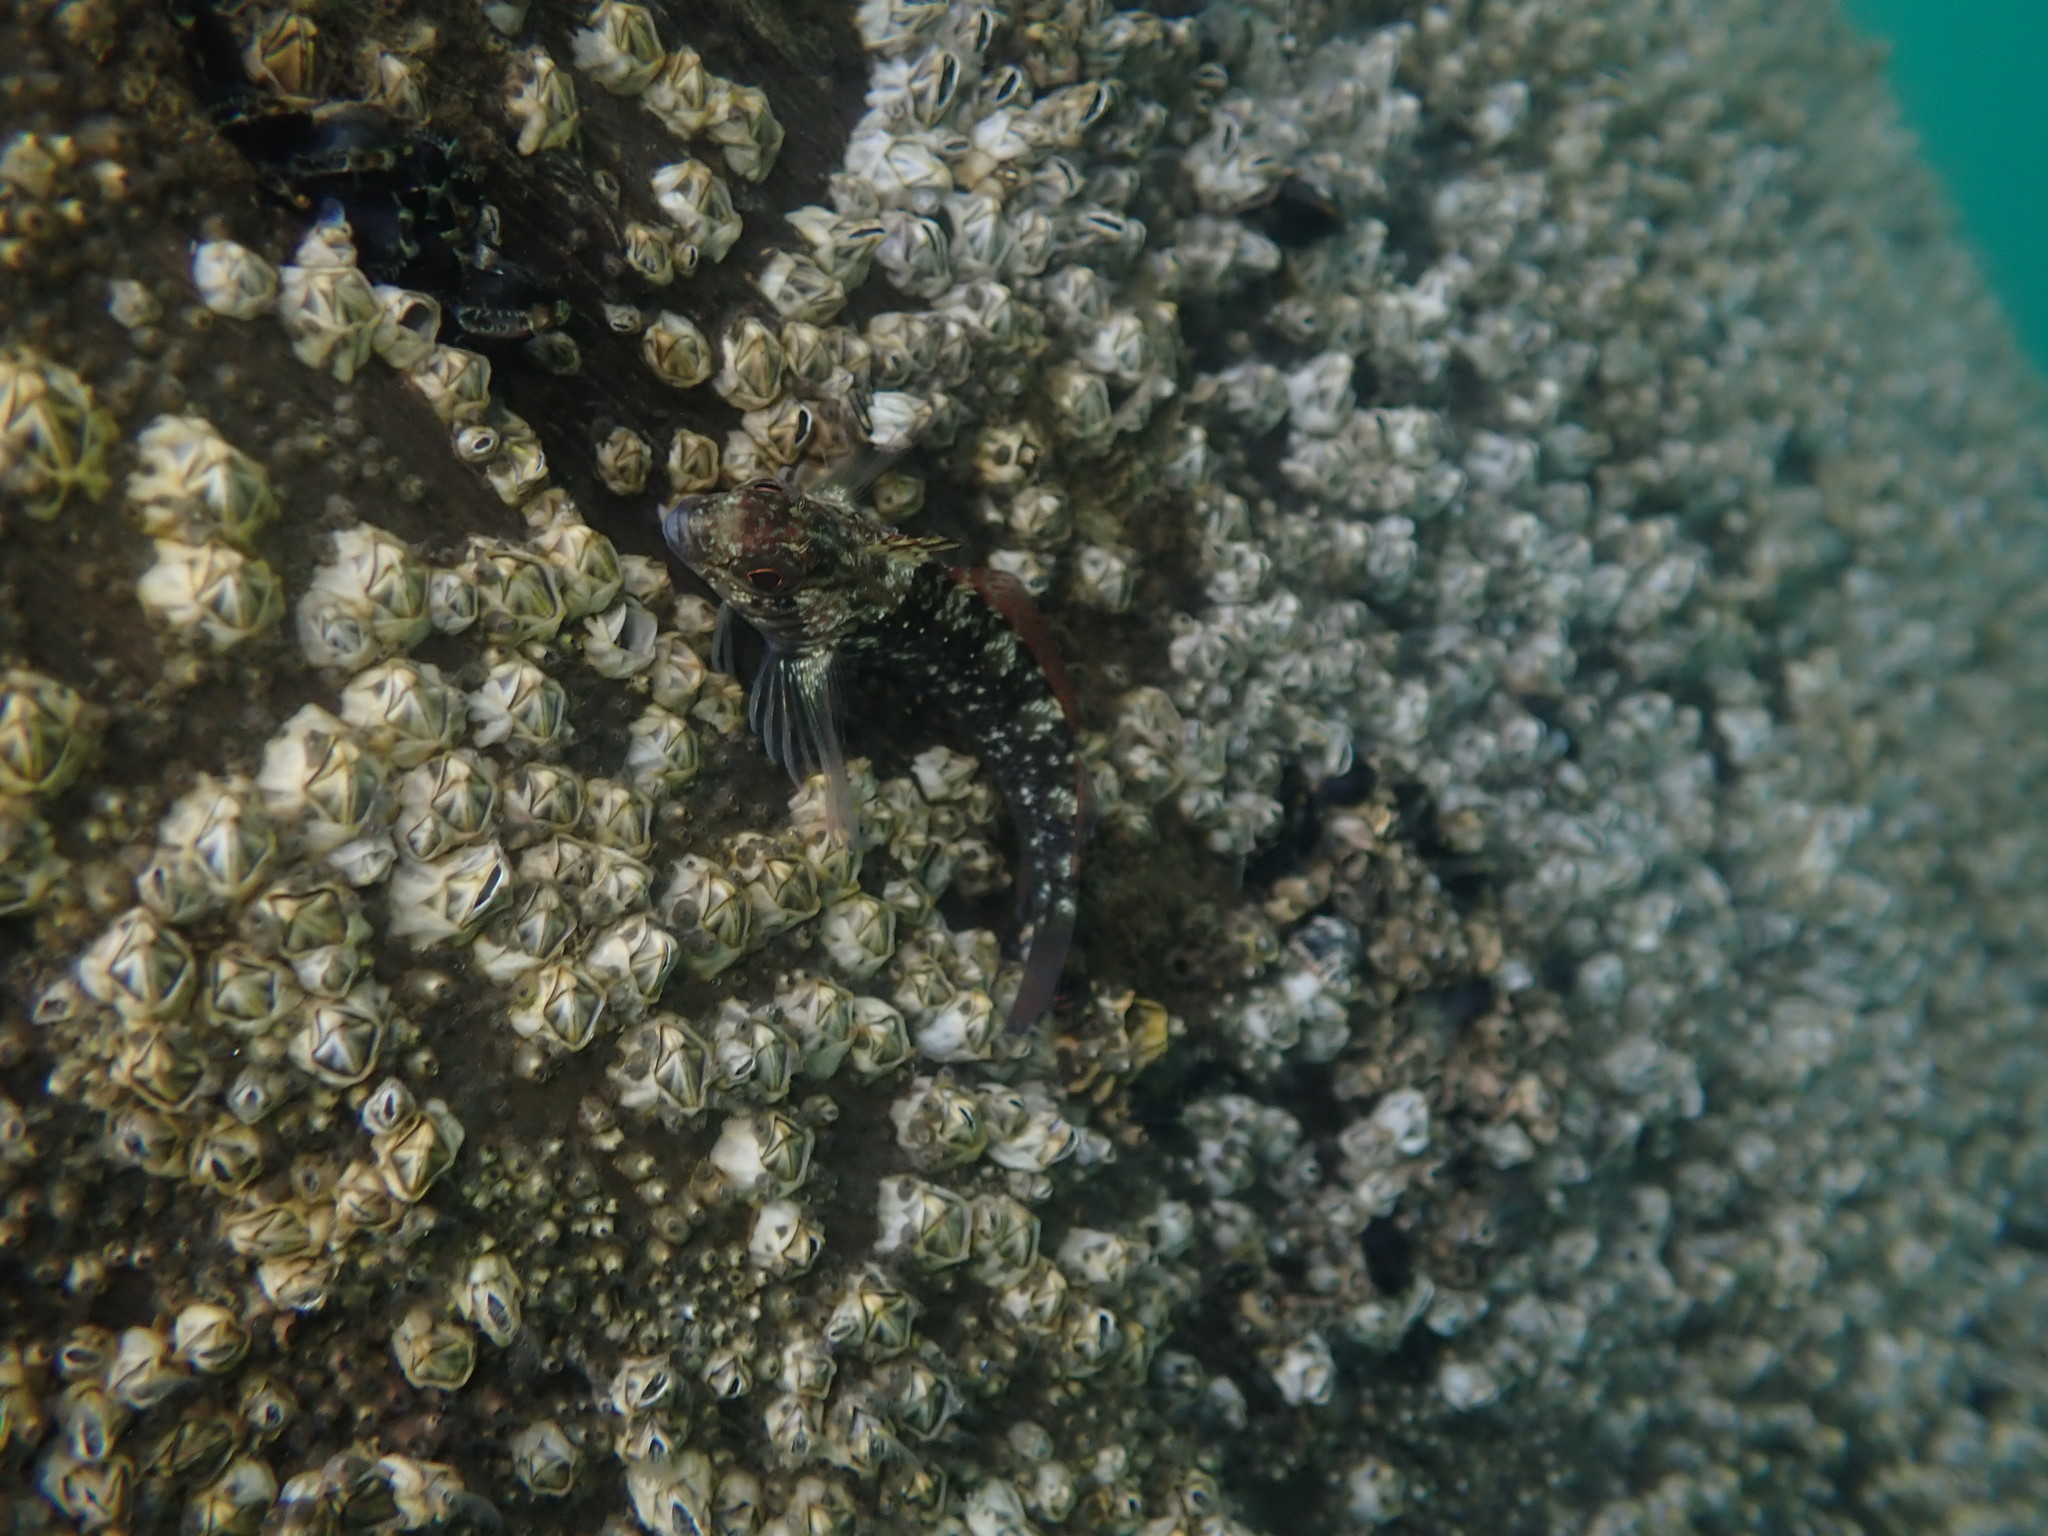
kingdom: Animalia
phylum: Chordata
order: Perciformes
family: Tripterygiidae
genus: Forsterygion
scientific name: Forsterygion lapillum
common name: Common triplefin
